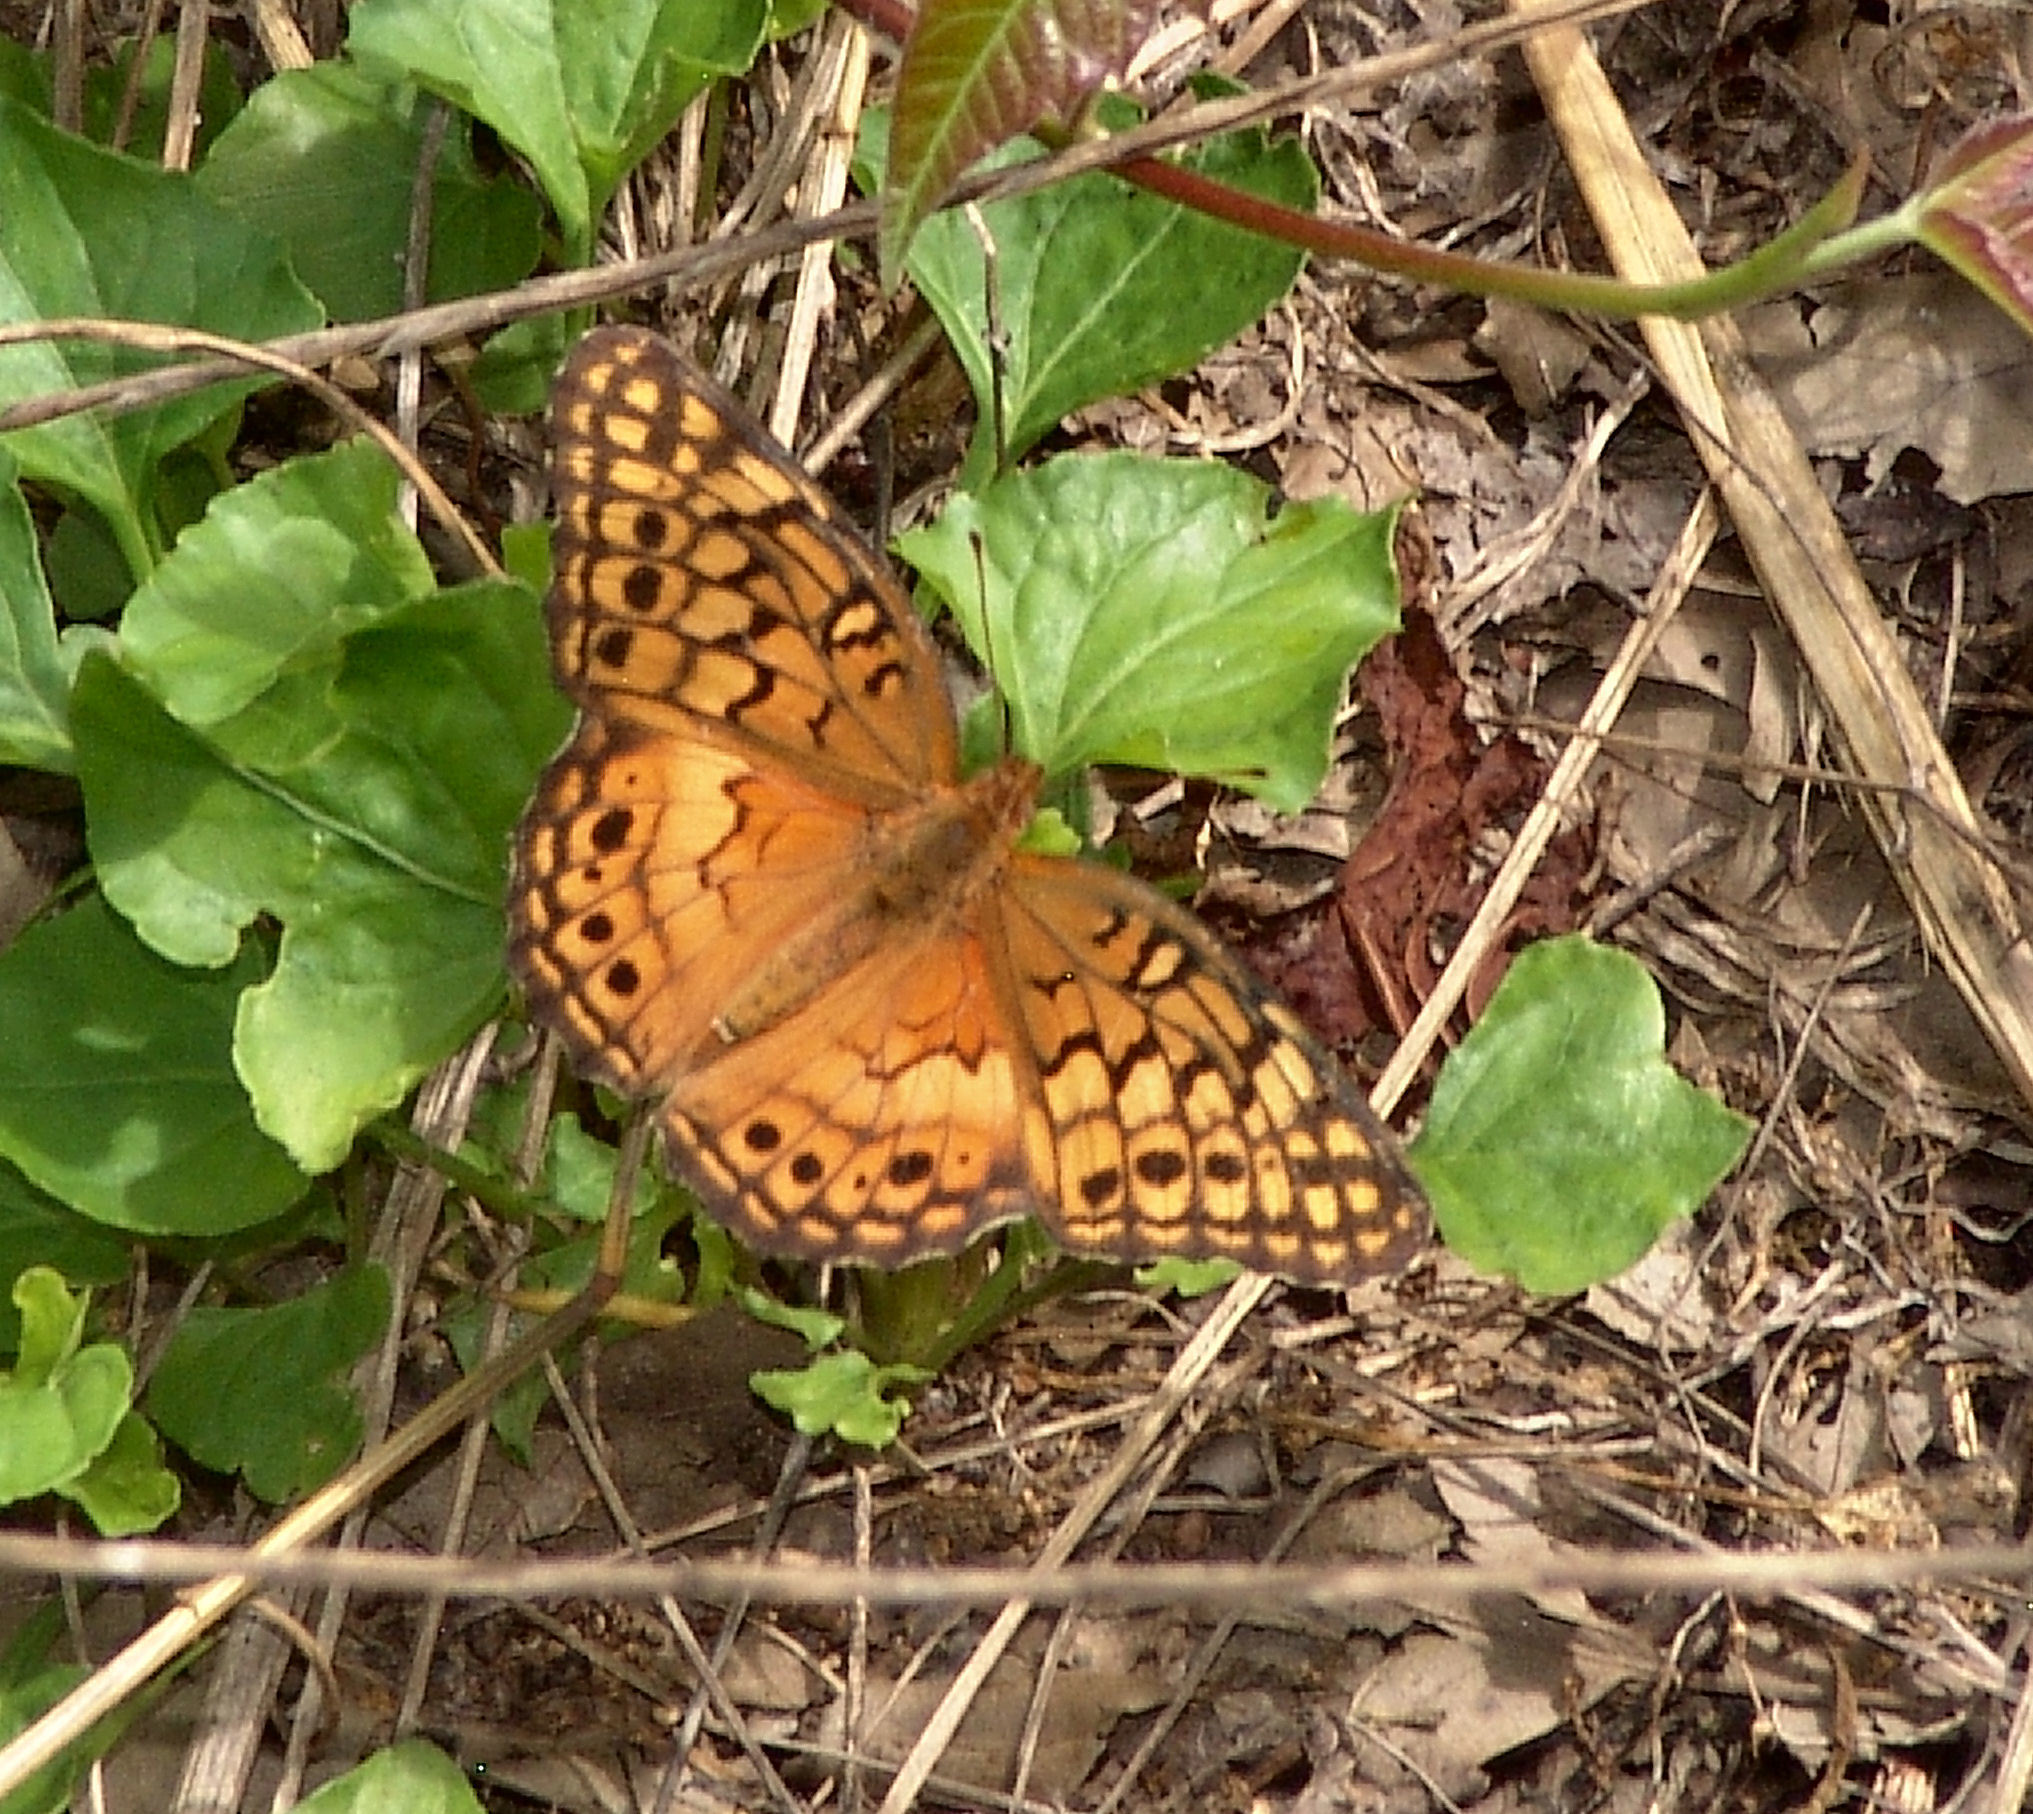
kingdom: Animalia
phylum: Arthropoda
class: Insecta
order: Lepidoptera
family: Nymphalidae
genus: Euptoieta
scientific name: Euptoieta claudia
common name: Variegated fritillary
